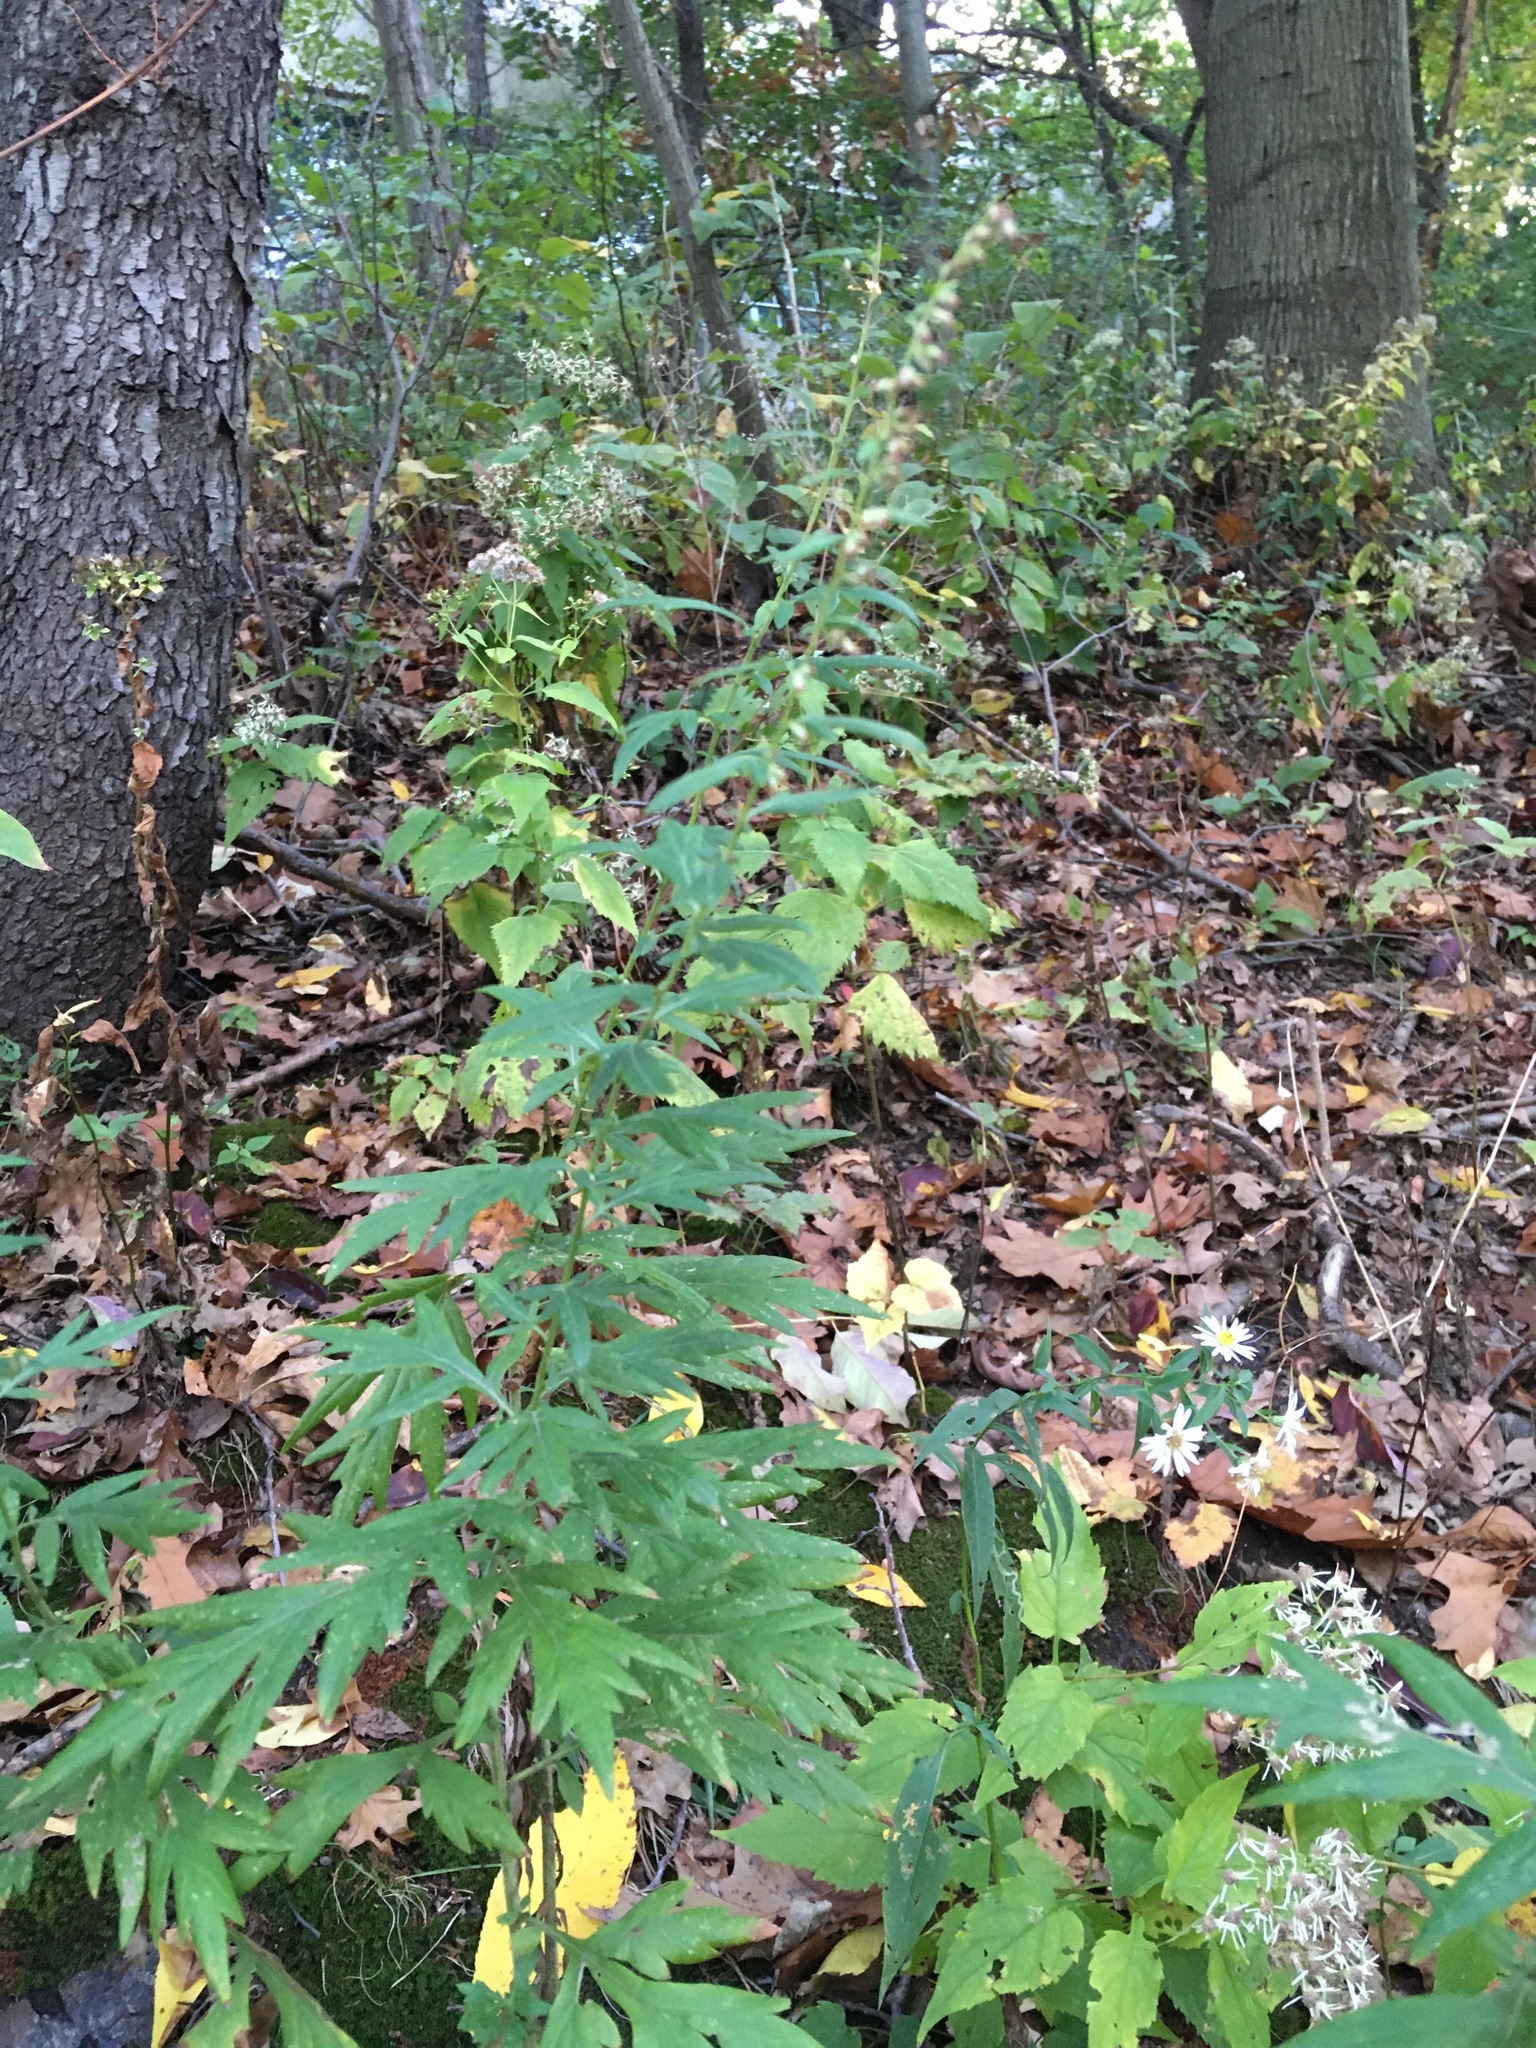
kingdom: Plantae
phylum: Tracheophyta
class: Magnoliopsida
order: Asterales
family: Asteraceae
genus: Artemisia
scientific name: Artemisia vulgaris
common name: Mugwort
